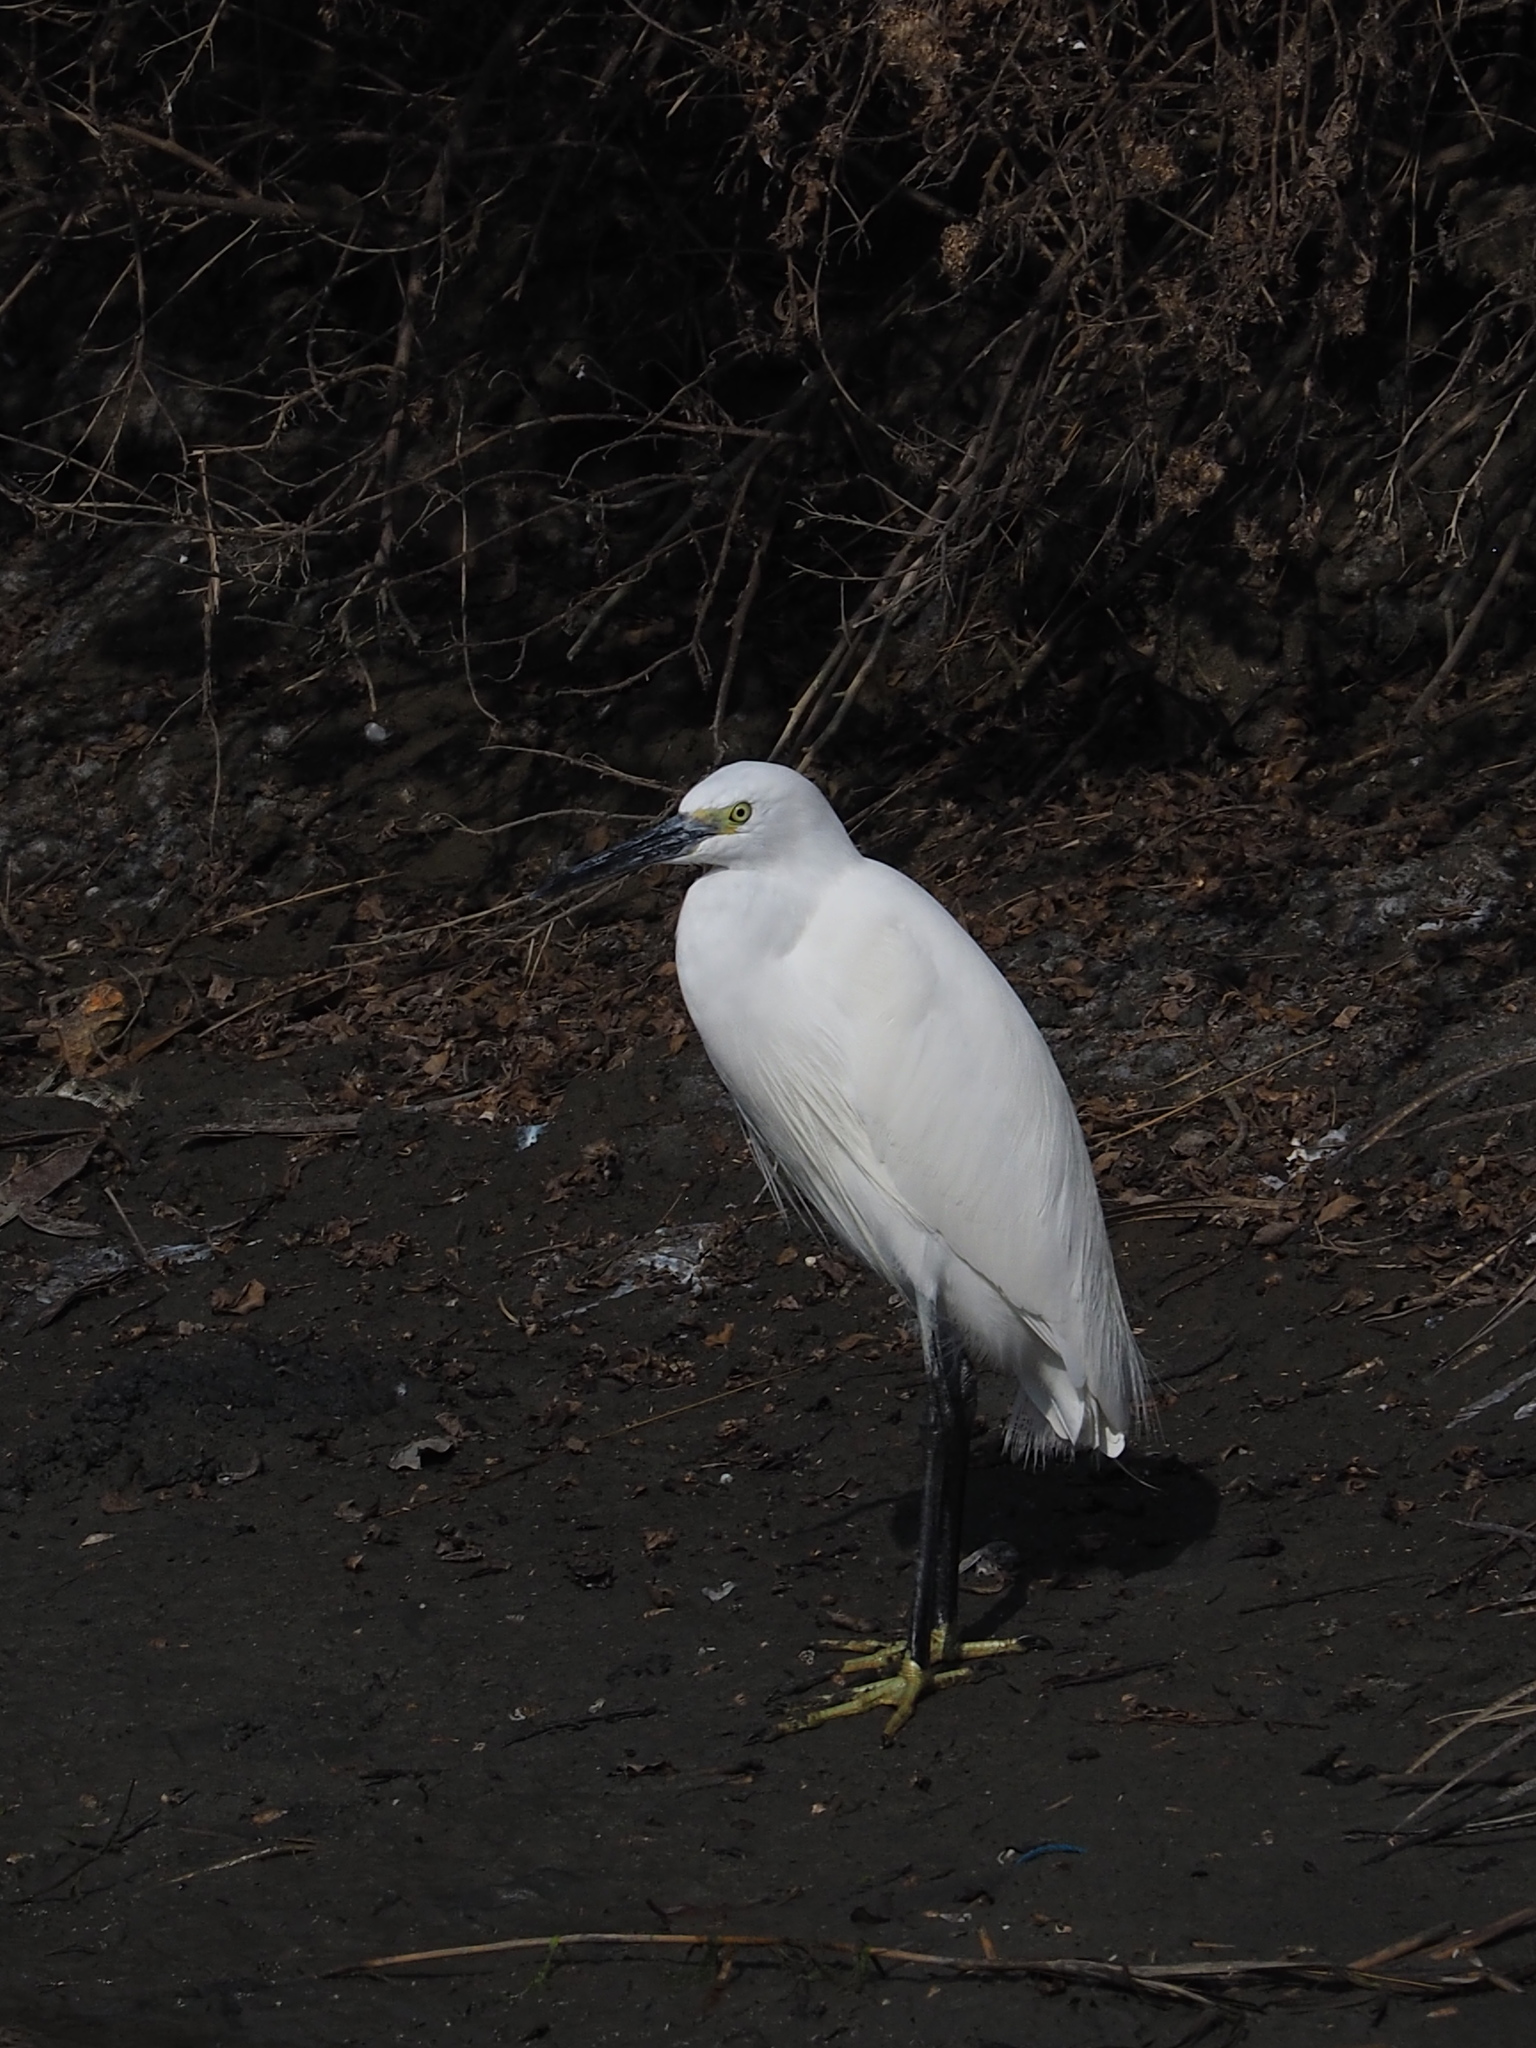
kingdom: Animalia
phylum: Chordata
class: Aves
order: Pelecaniformes
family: Ardeidae
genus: Egretta
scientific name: Egretta garzetta
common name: Little egret
